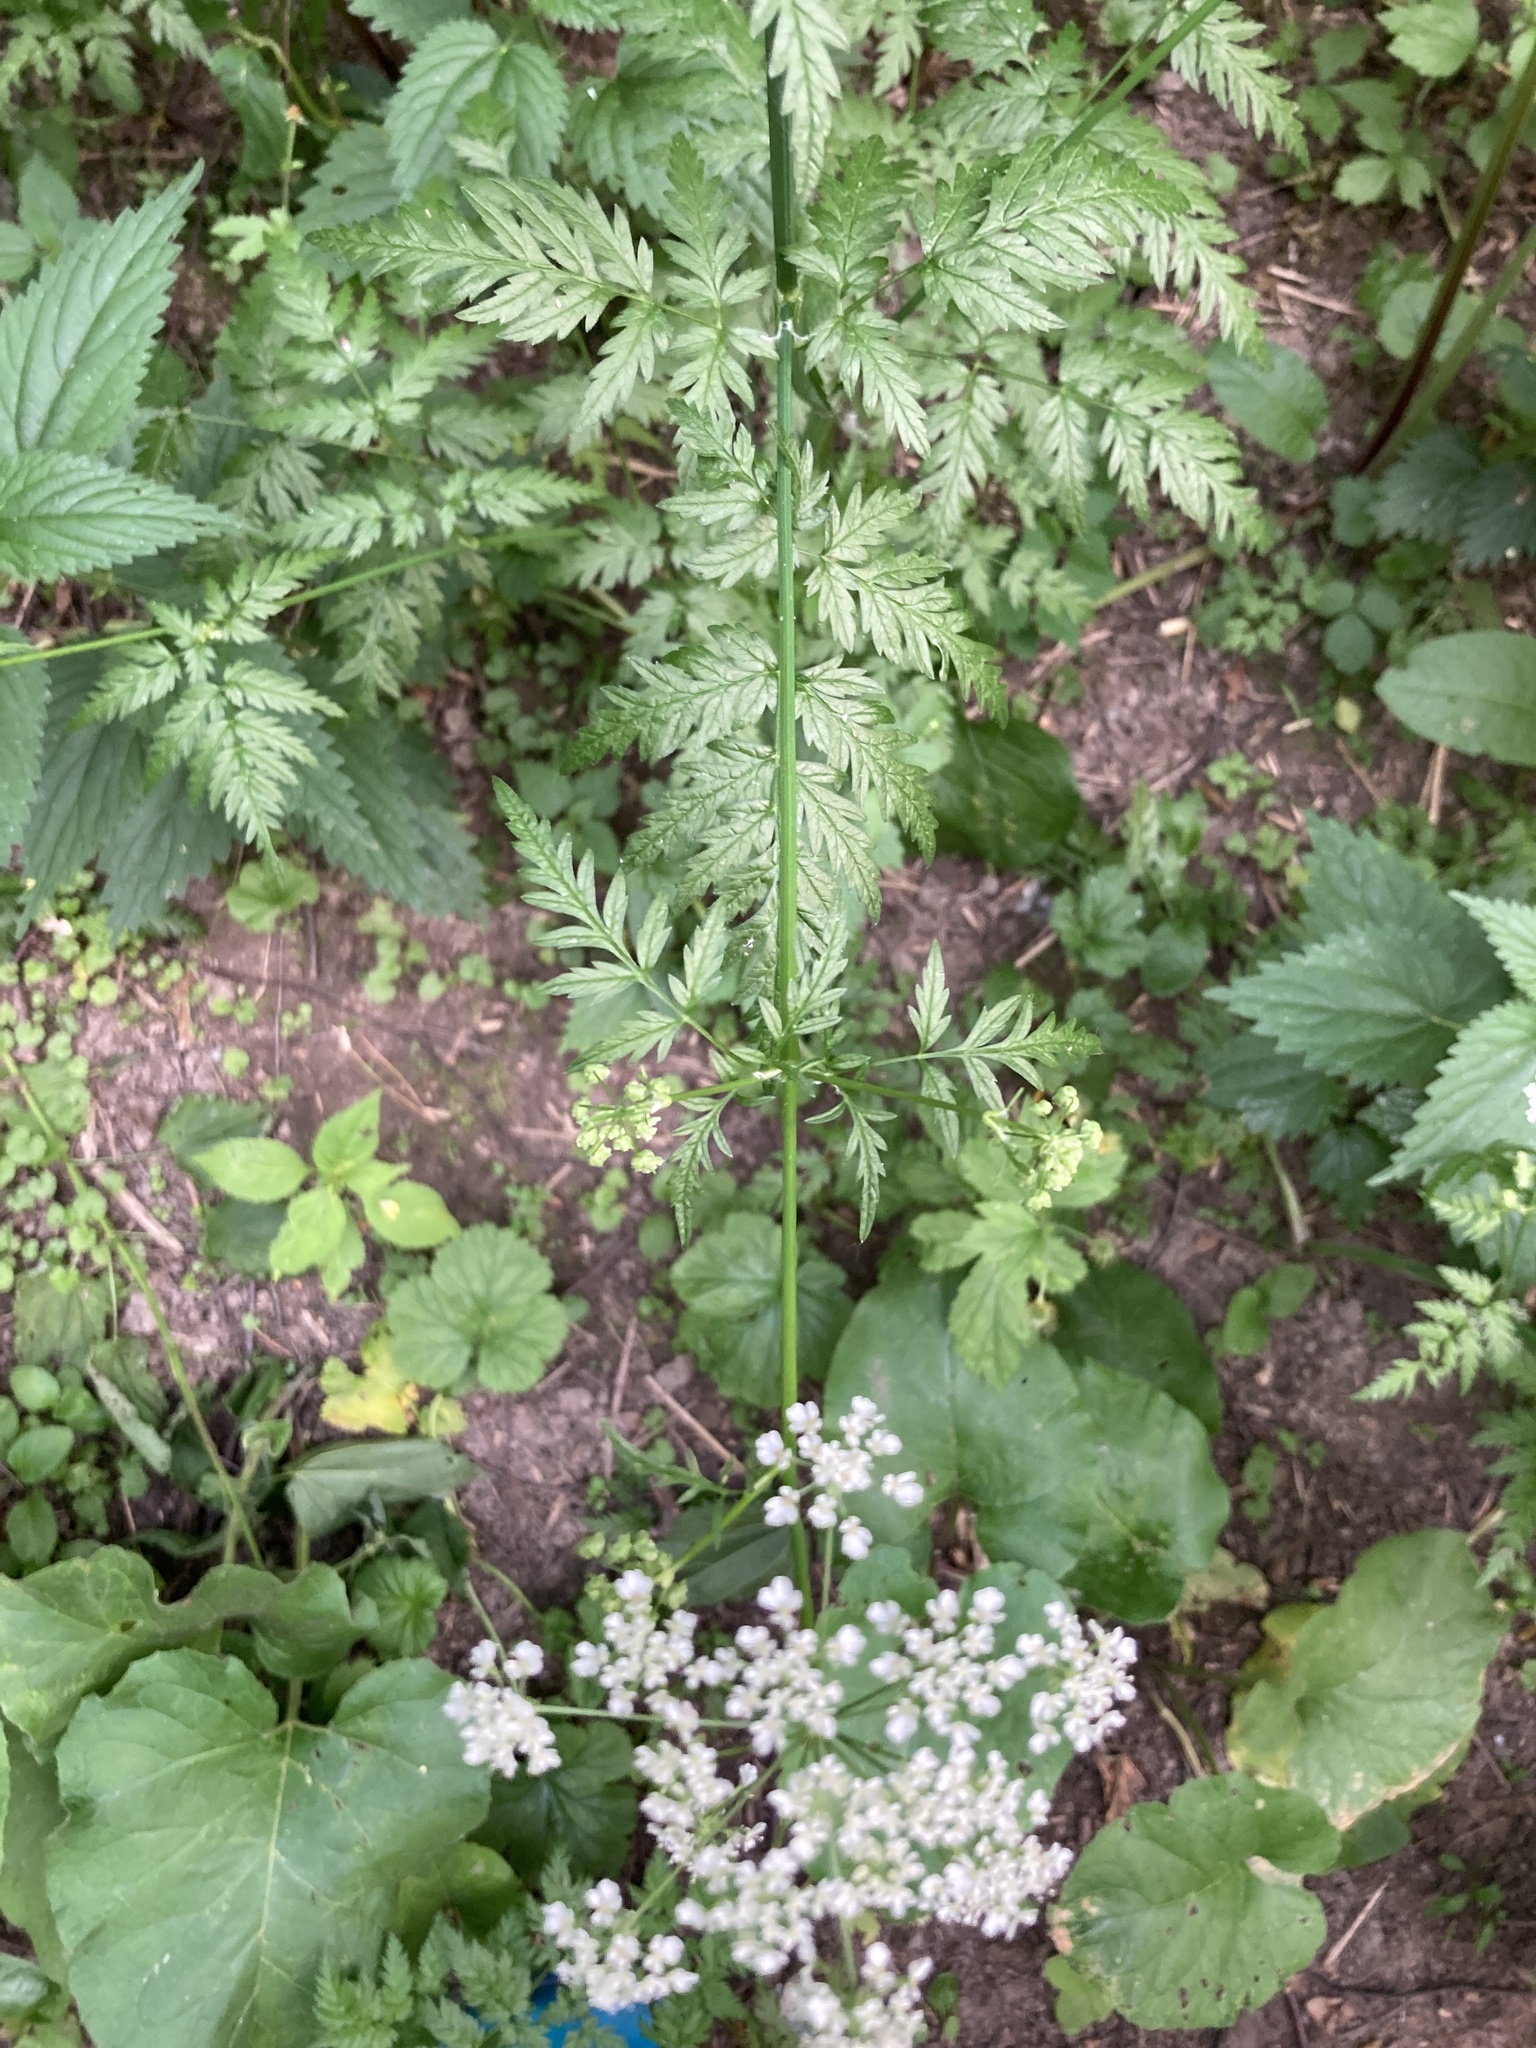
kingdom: Plantae
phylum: Tracheophyta
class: Magnoliopsida
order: Apiales
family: Apiaceae
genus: Anthriscus
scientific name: Anthriscus sylvestris
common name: Cow parsley
